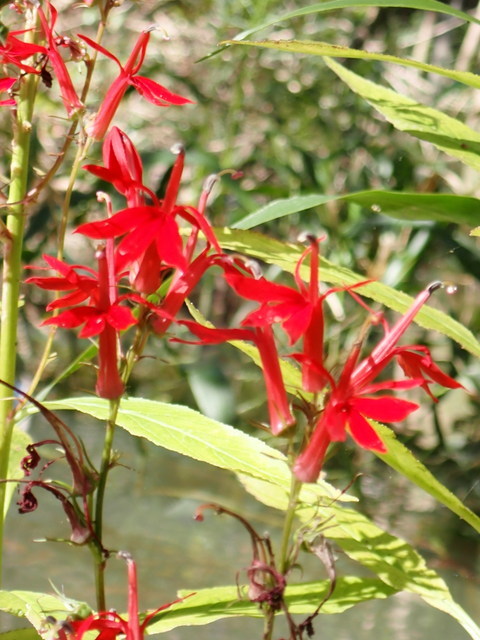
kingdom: Plantae
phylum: Tracheophyta
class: Magnoliopsida
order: Asterales
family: Campanulaceae
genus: Lobelia
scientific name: Lobelia cardinalis
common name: Cardinal flower
